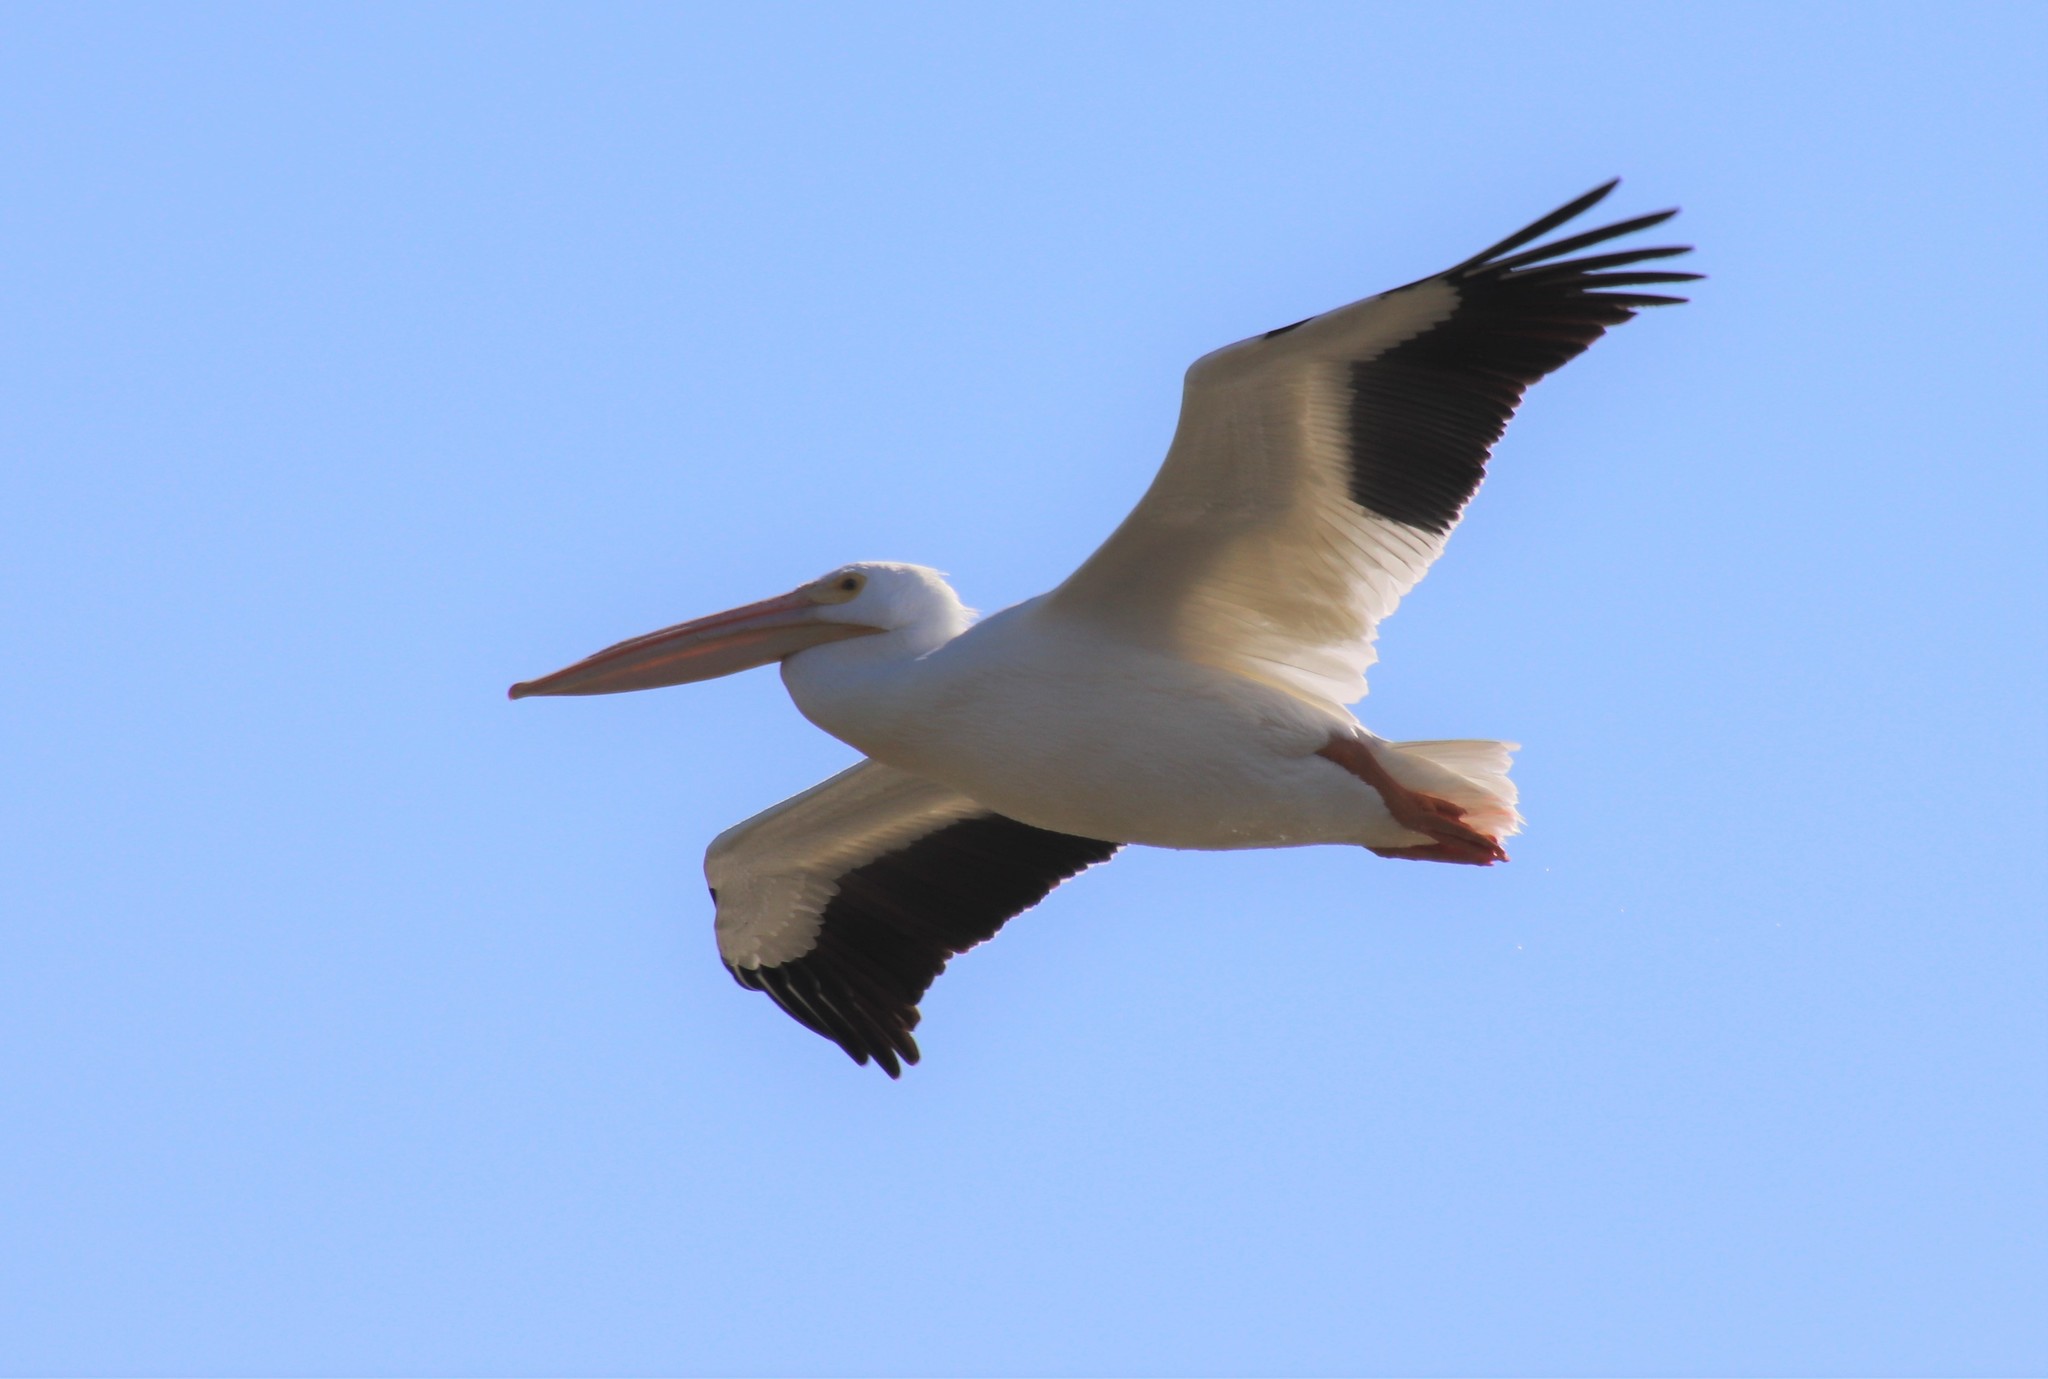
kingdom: Animalia
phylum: Chordata
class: Aves
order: Pelecaniformes
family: Pelecanidae
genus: Pelecanus
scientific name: Pelecanus erythrorhynchos
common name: American white pelican
